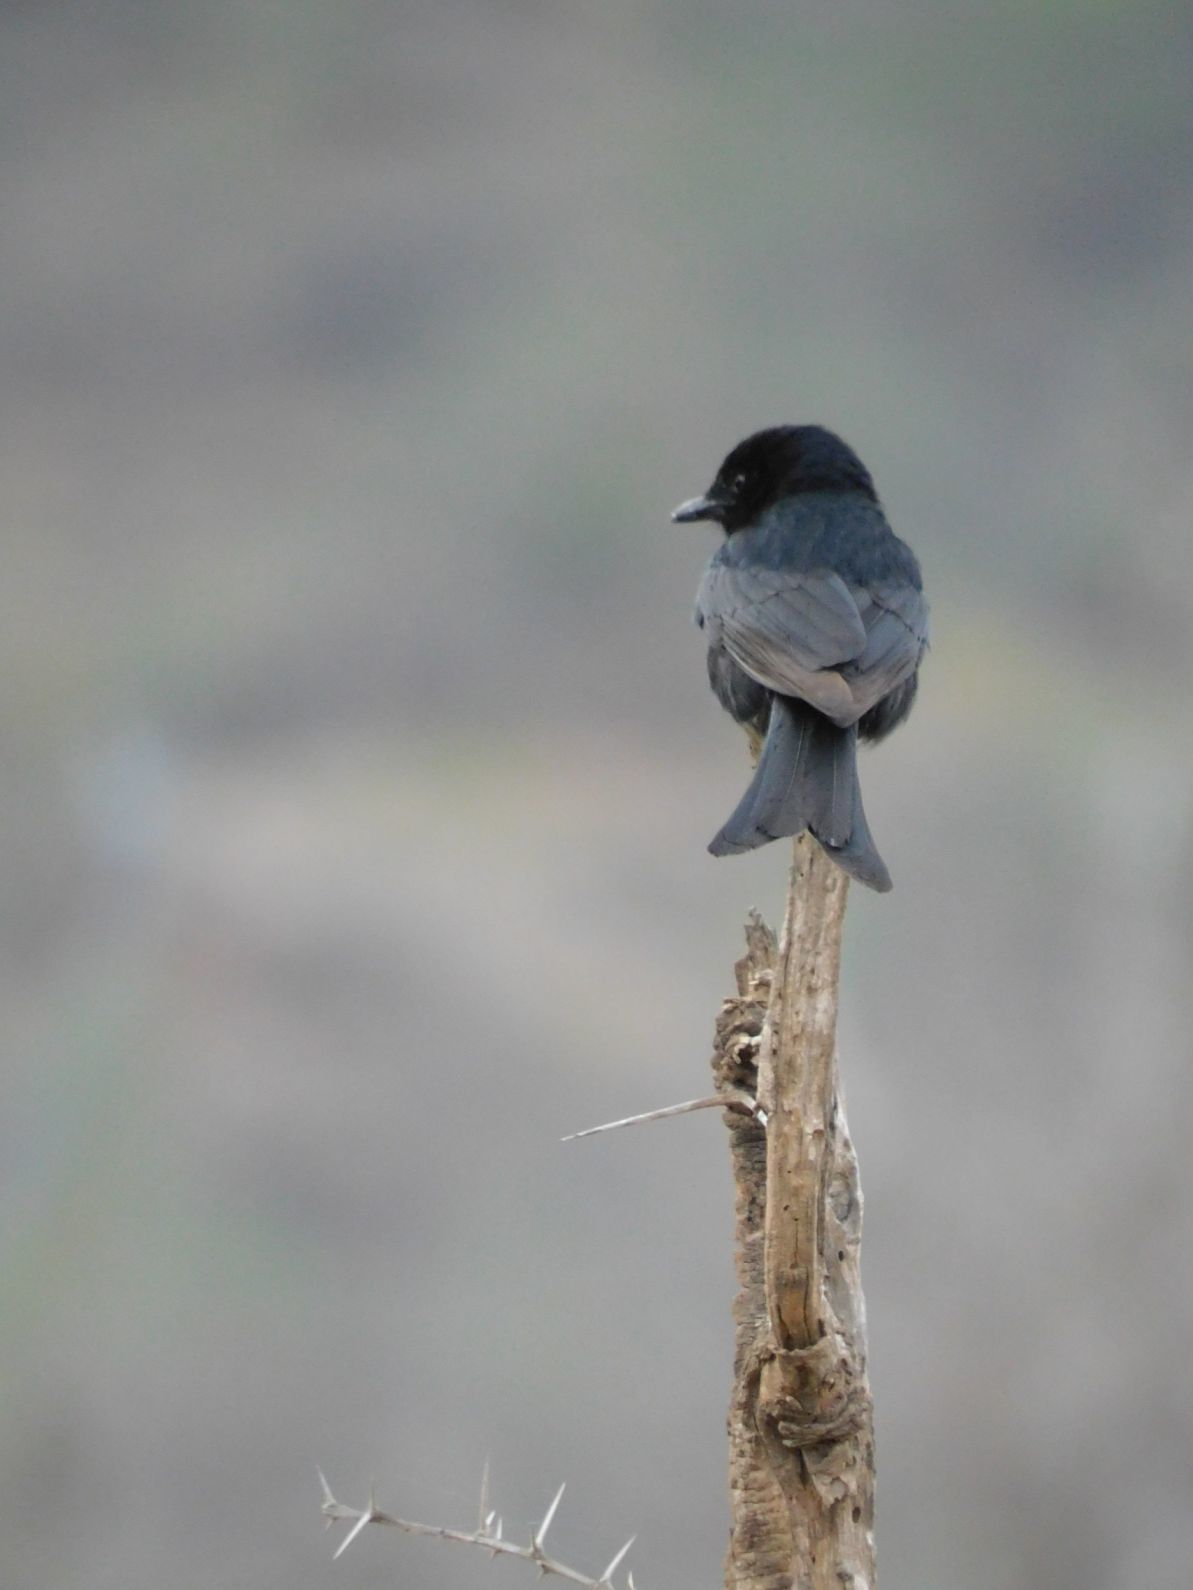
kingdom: Animalia
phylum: Chordata
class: Aves
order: Passeriformes
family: Dicruridae
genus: Dicrurus
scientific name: Dicrurus adsimilis
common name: Fork-tailed drongo
